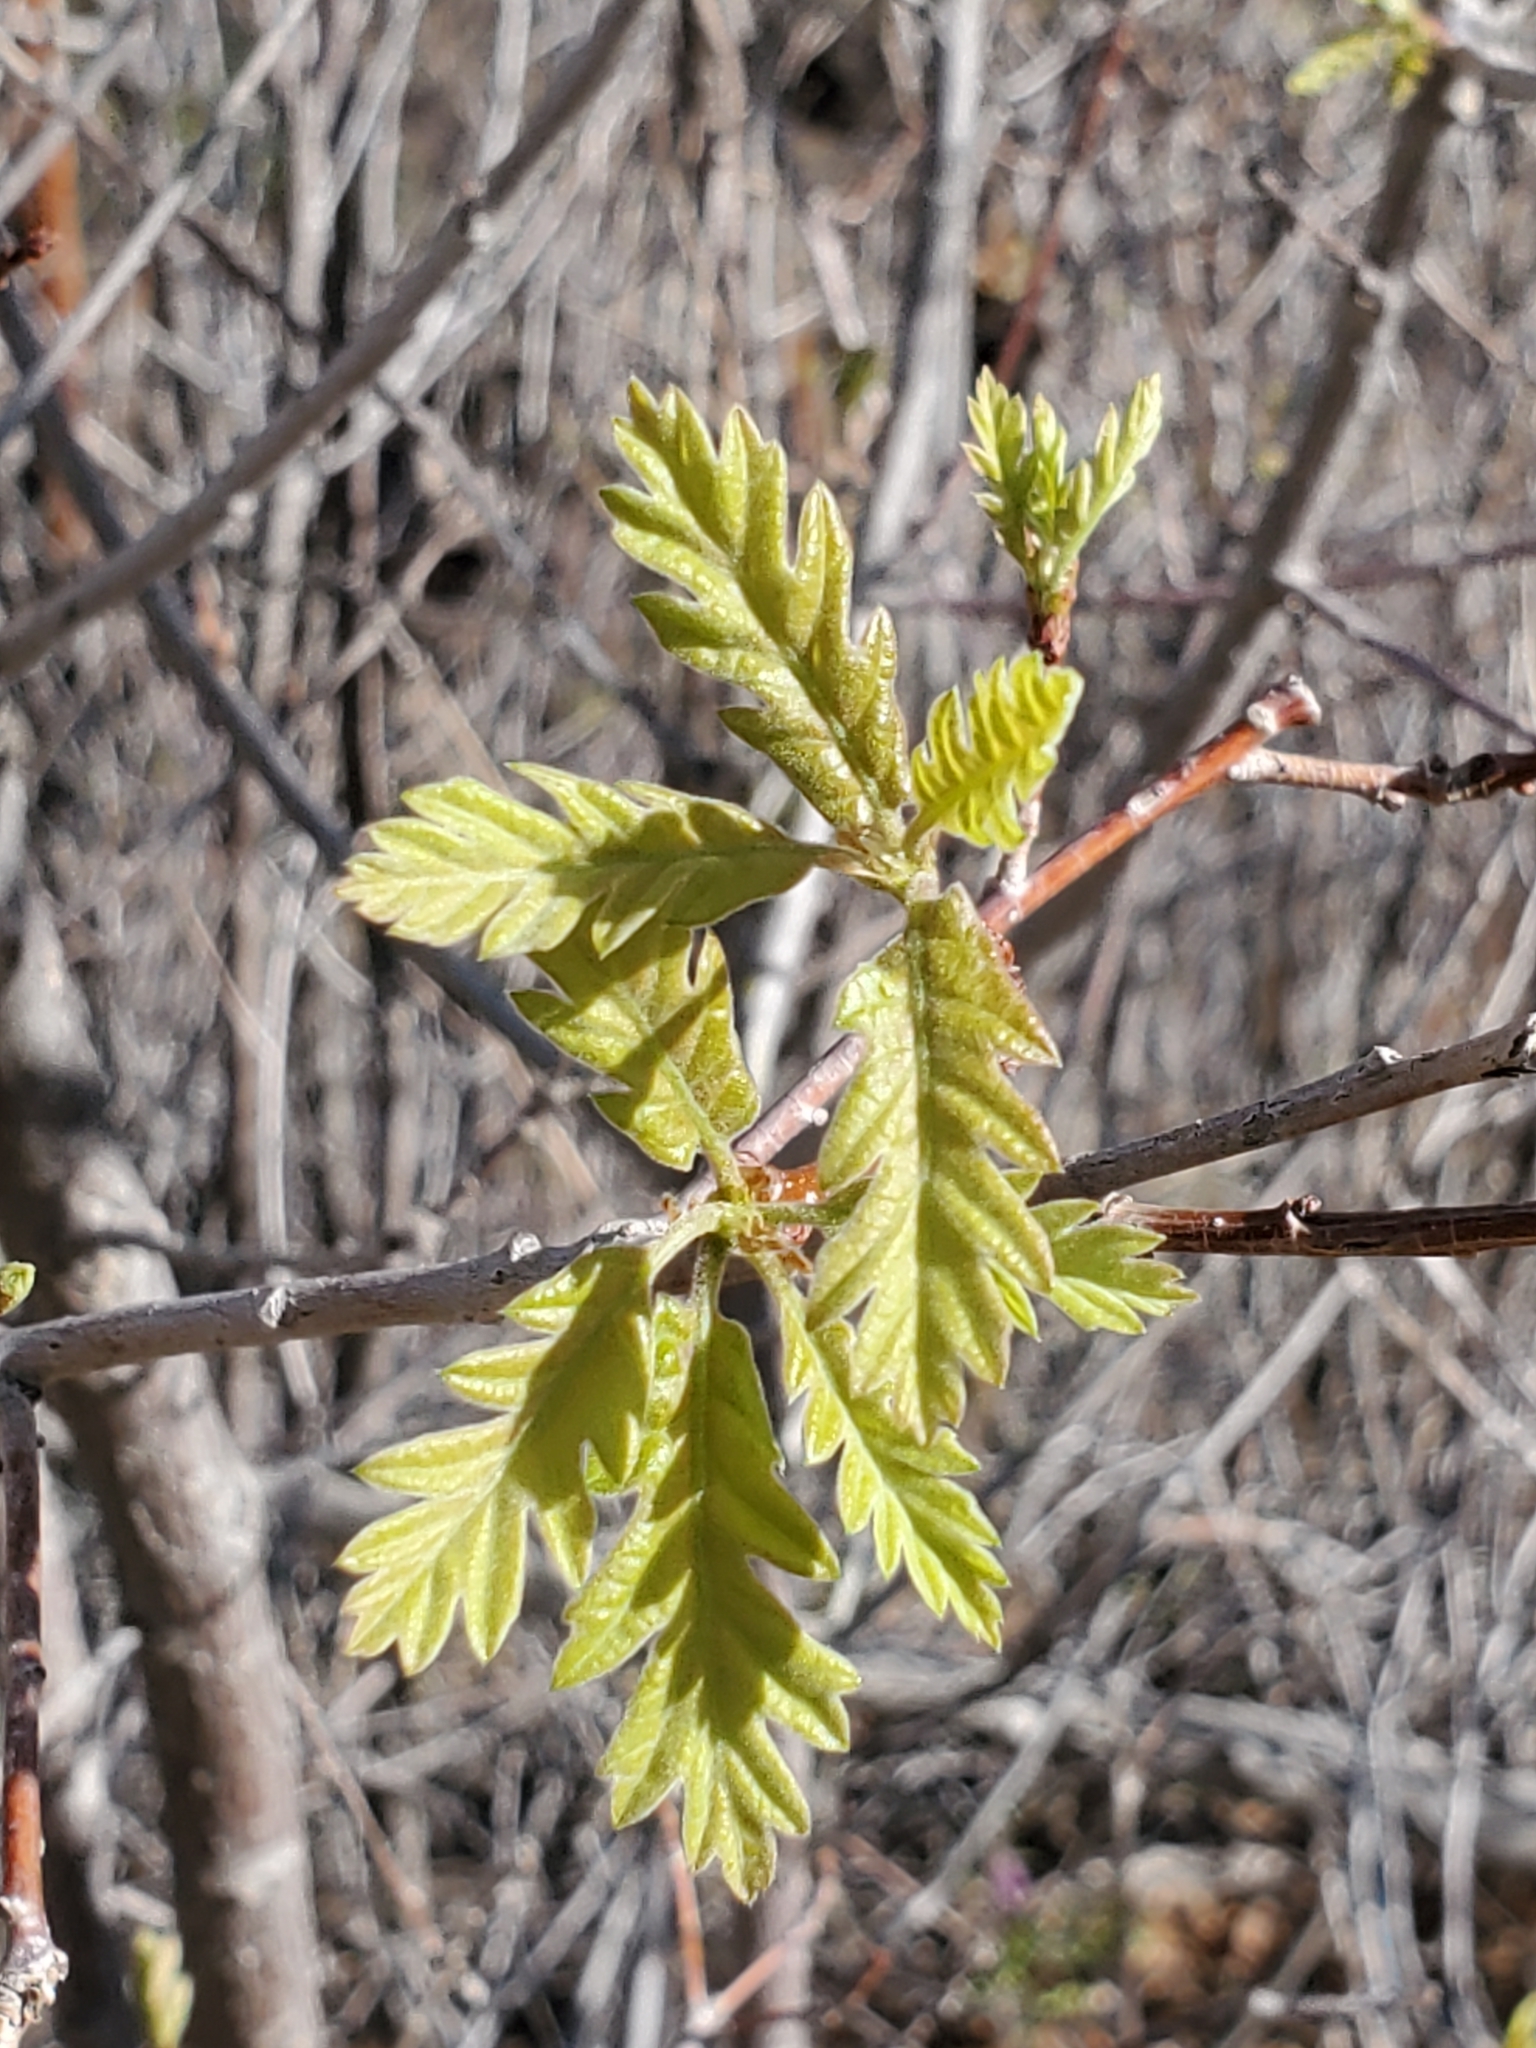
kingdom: Plantae
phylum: Tracheophyta
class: Magnoliopsida
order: Fagales
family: Fagaceae
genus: Quercus
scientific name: Quercus gambelii
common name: Gambel oak
